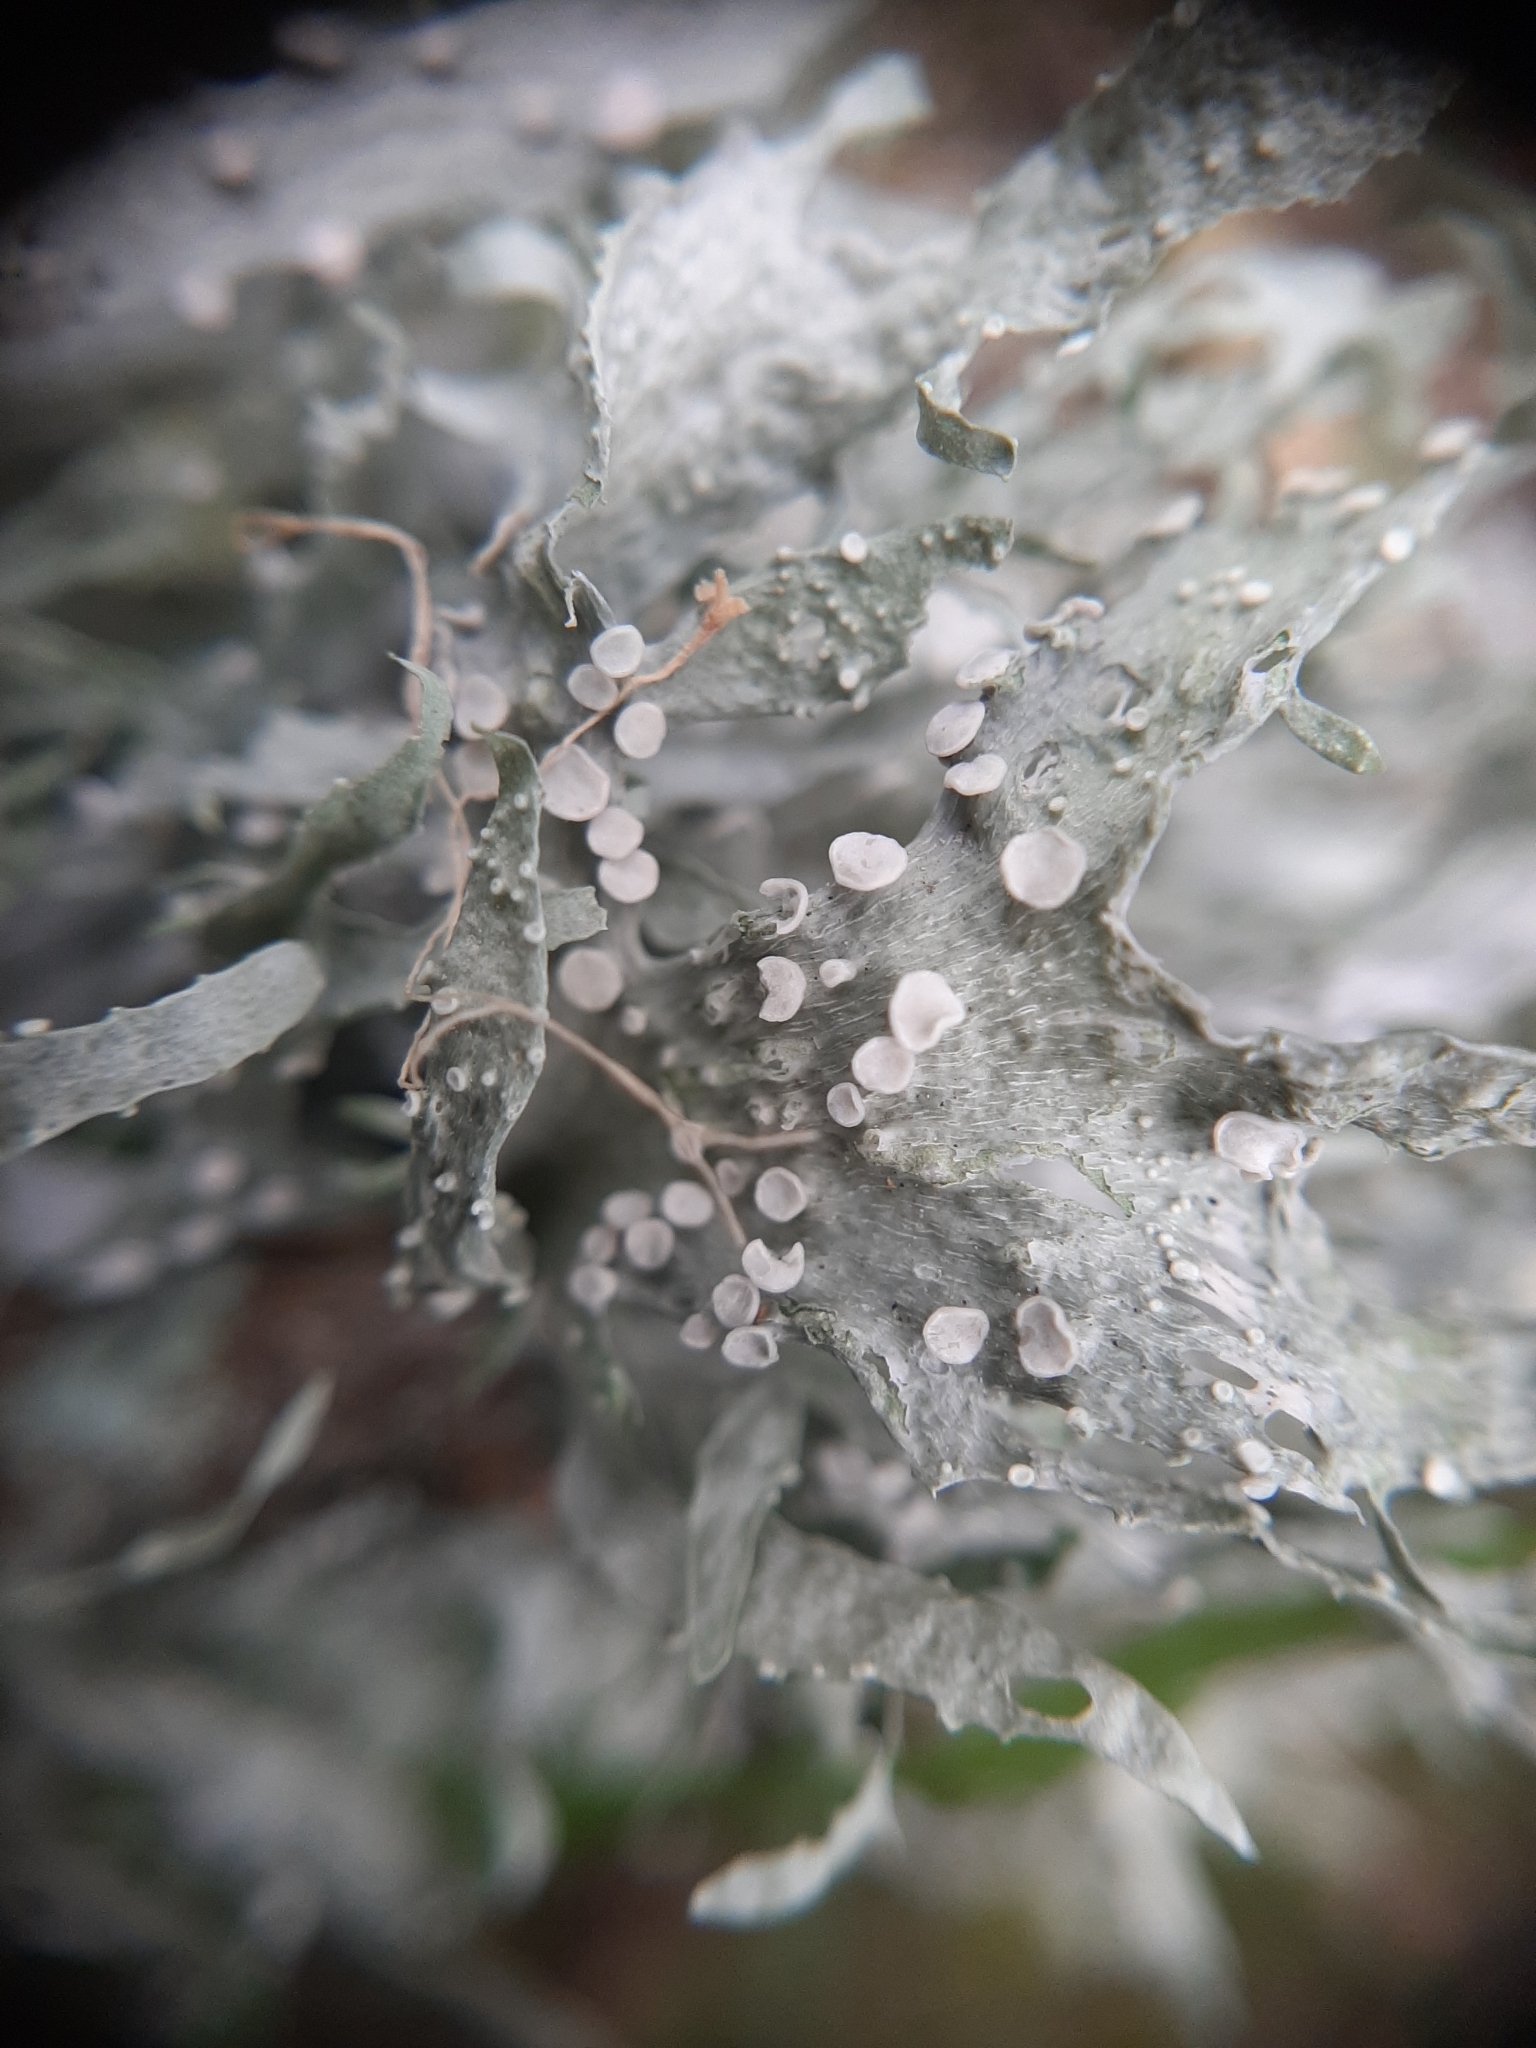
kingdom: Fungi
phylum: Ascomycota
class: Lecanoromycetes
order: Lecanorales
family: Ramalinaceae
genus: Ramalina
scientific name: Ramalina celastri
